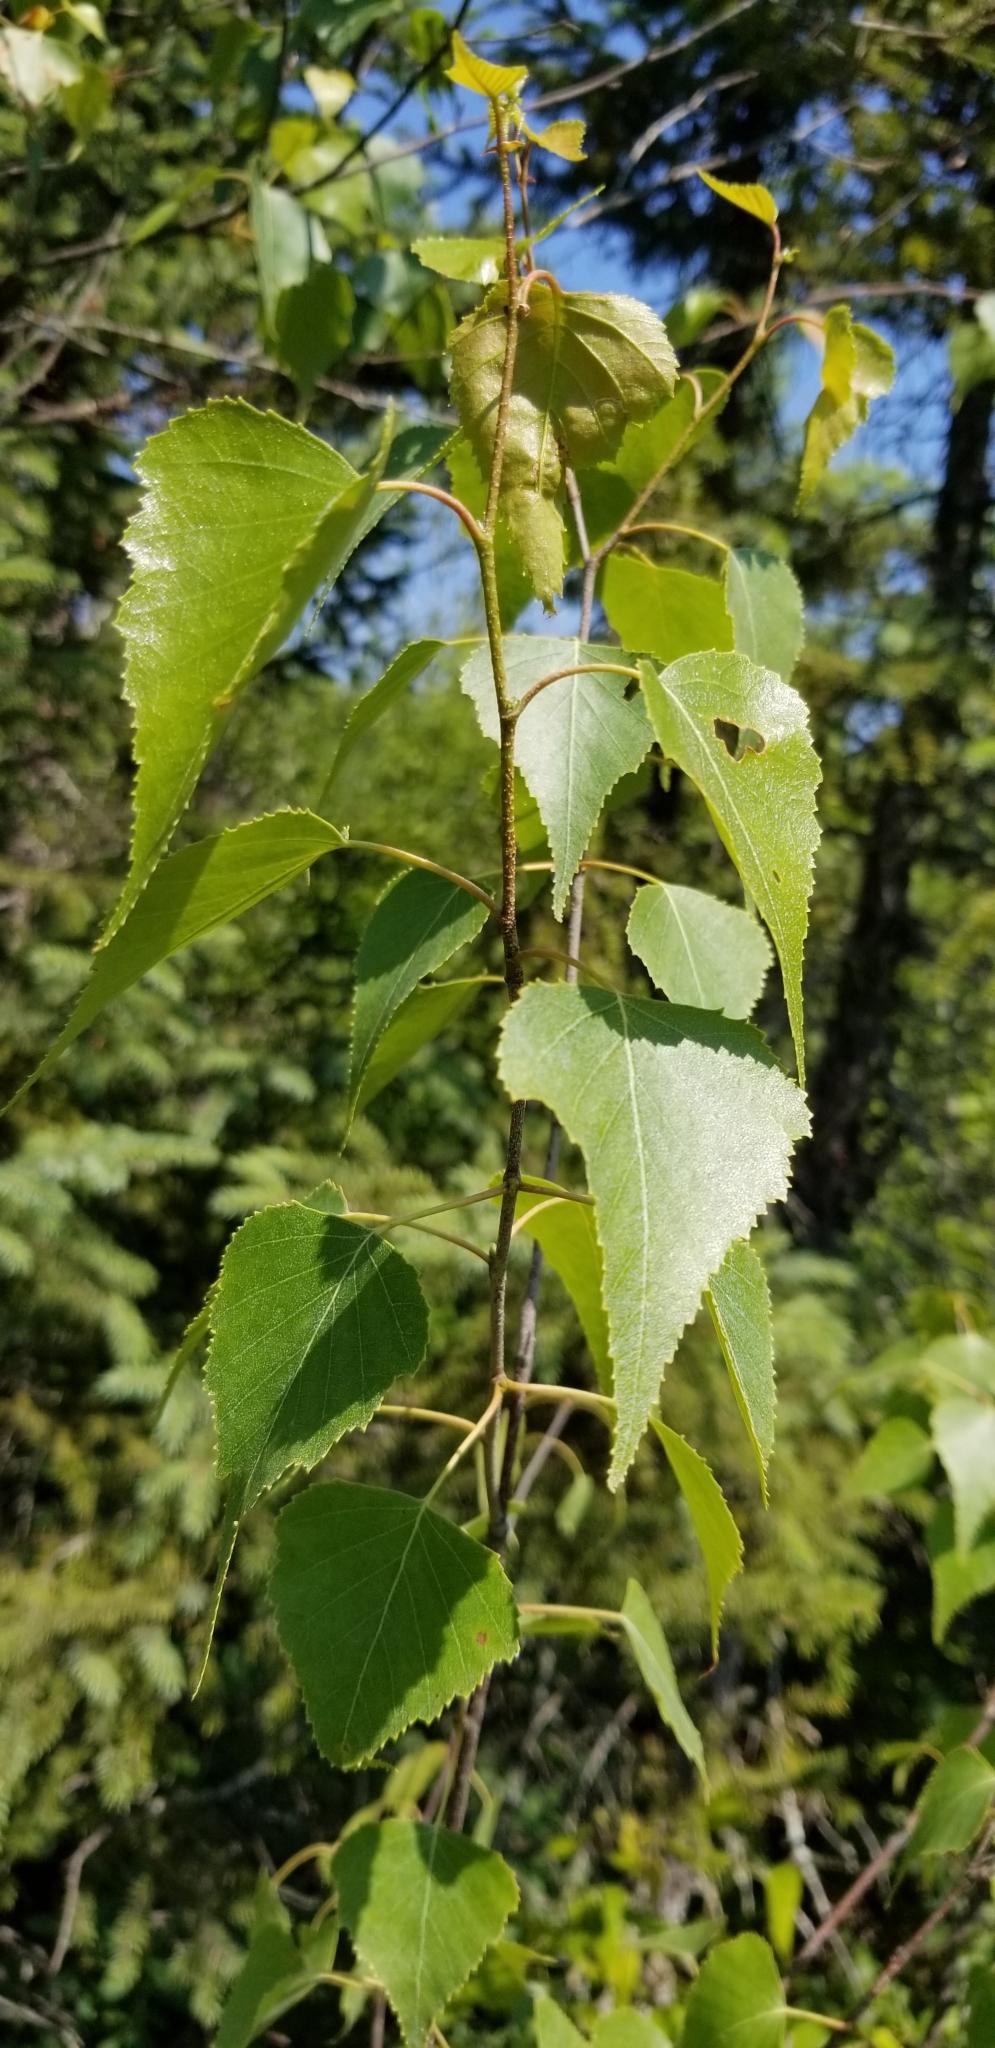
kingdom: Plantae
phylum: Tracheophyta
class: Magnoliopsida
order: Fagales
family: Betulaceae
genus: Betula
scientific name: Betula populifolia
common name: Fire birch
